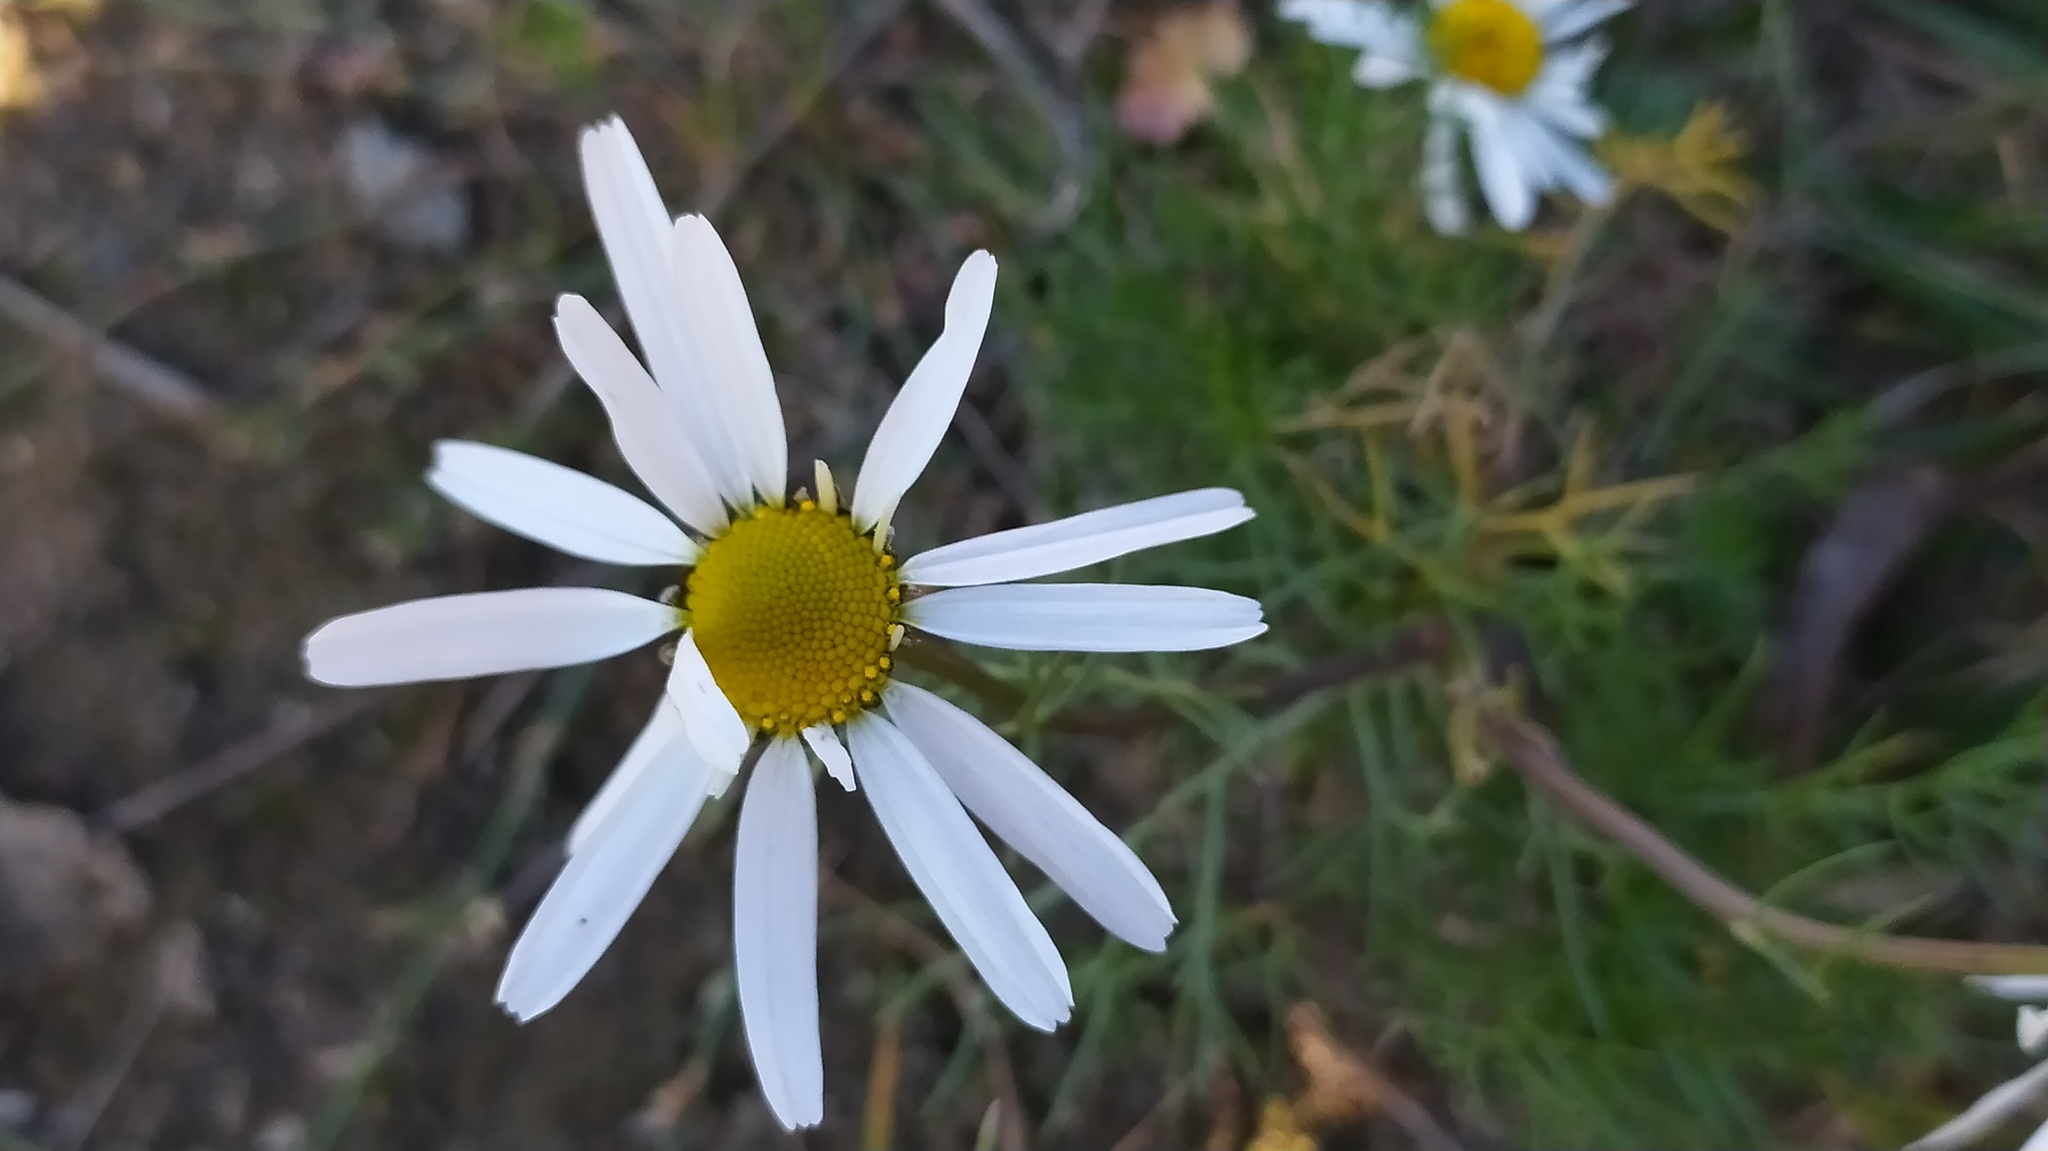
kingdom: Plantae
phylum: Tracheophyta
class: Magnoliopsida
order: Asterales
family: Asteraceae
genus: Tripleurospermum
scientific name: Tripleurospermum inodorum
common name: Scentless mayweed
